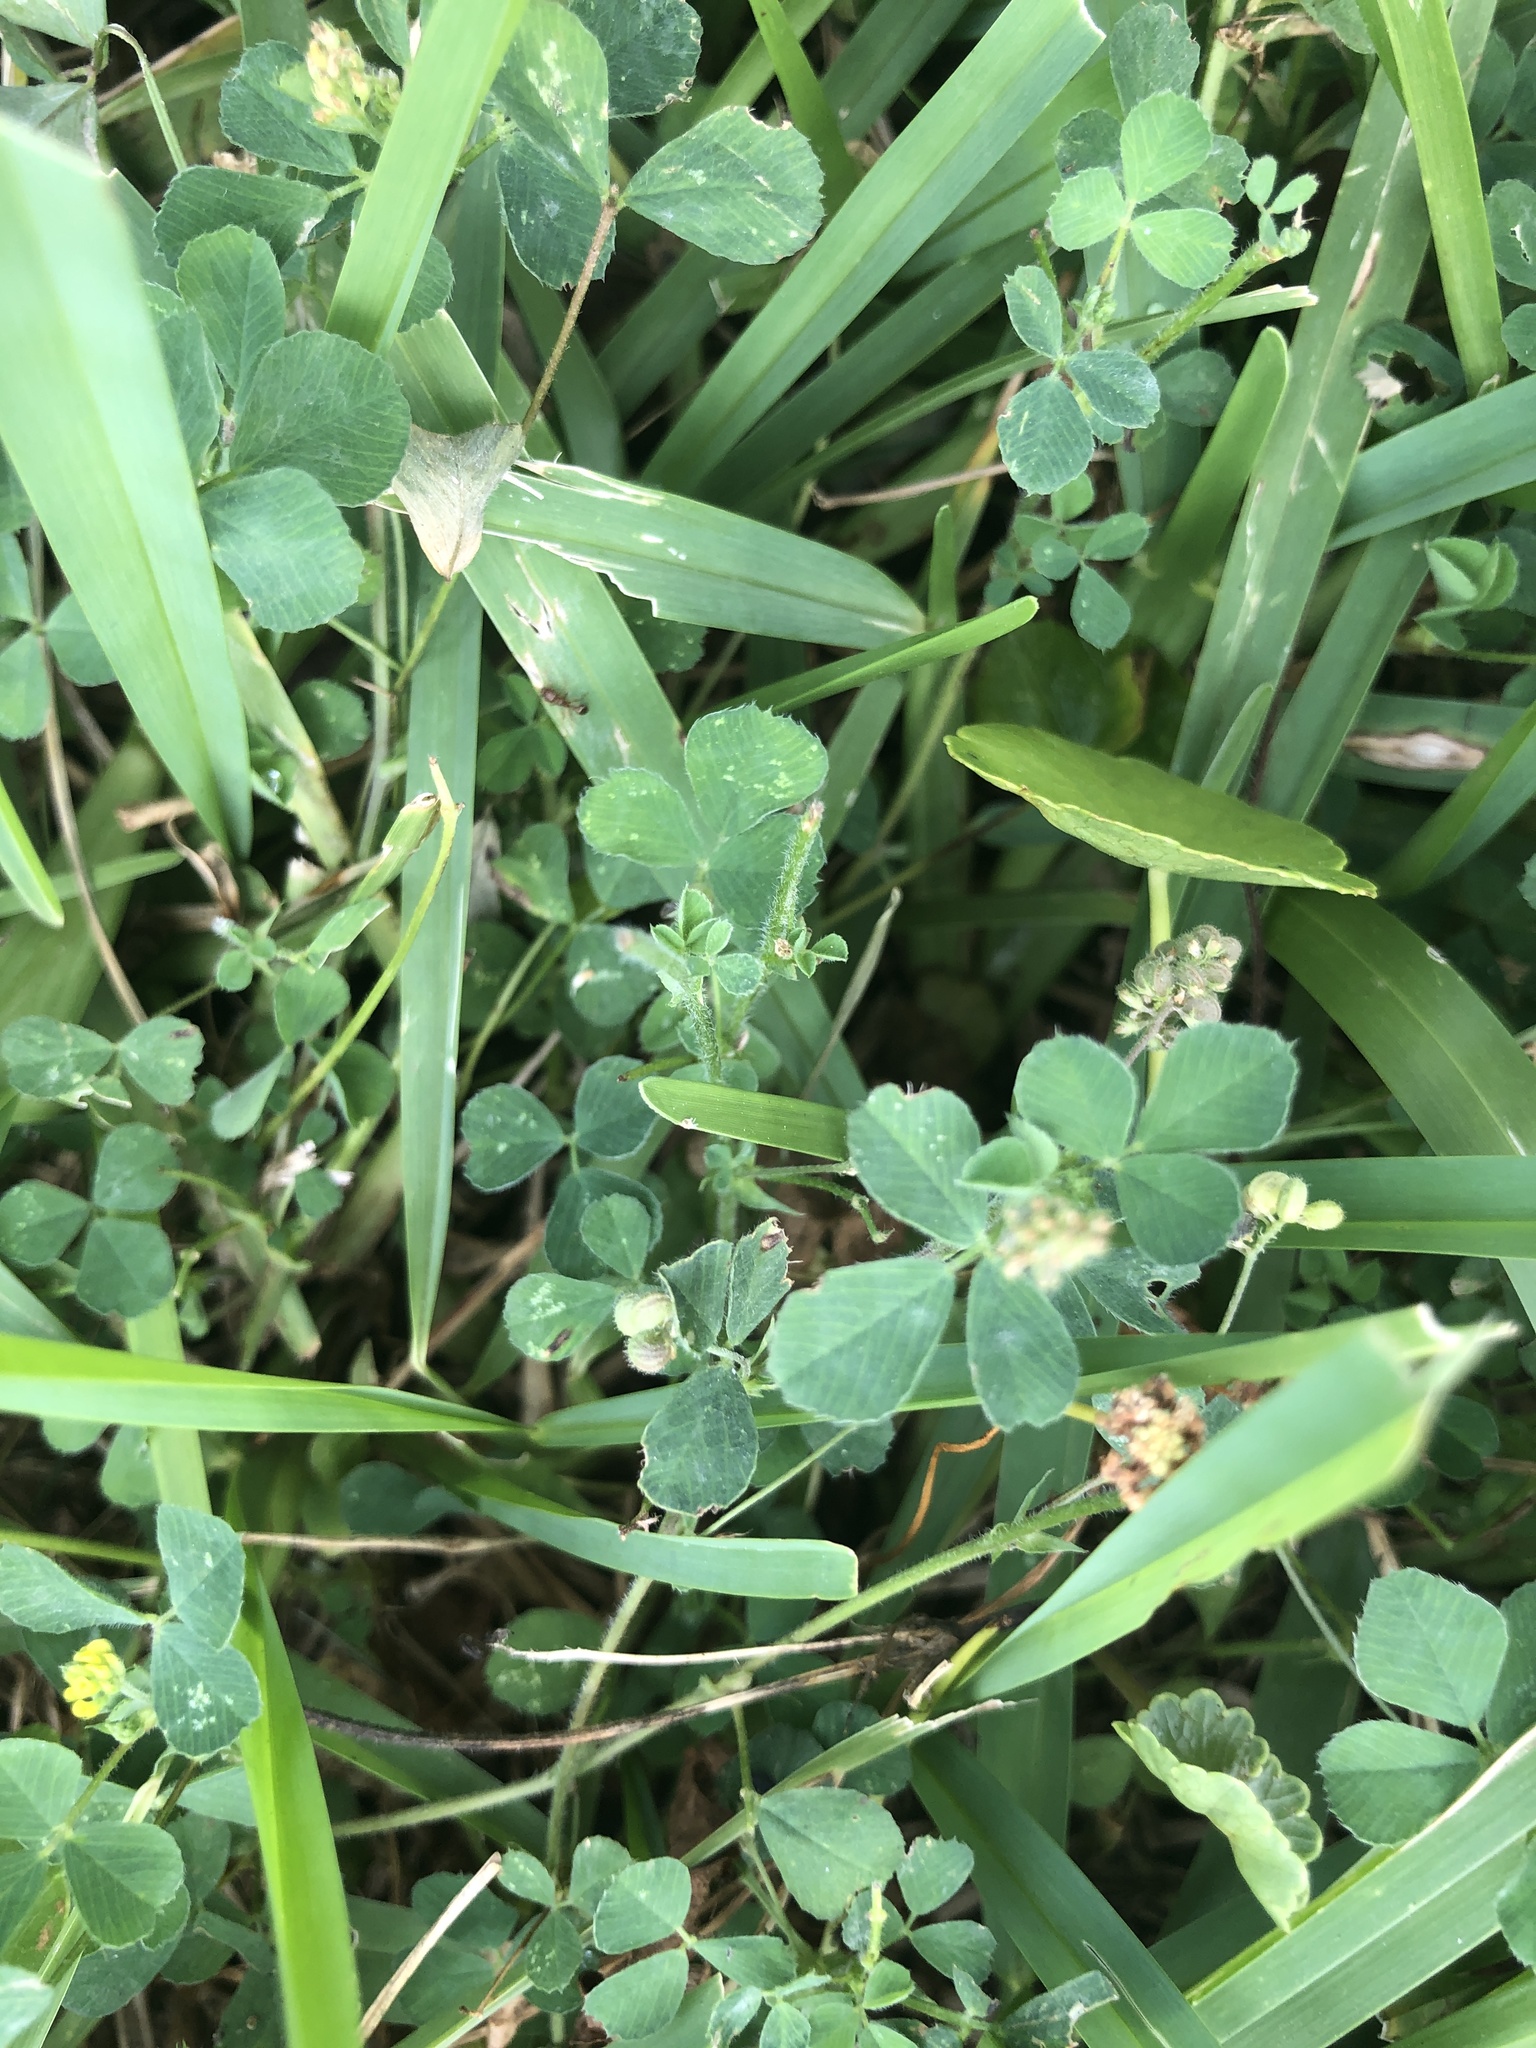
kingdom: Plantae
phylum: Tracheophyta
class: Magnoliopsida
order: Fabales
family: Fabaceae
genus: Medicago
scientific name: Medicago lupulina
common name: Black medick
